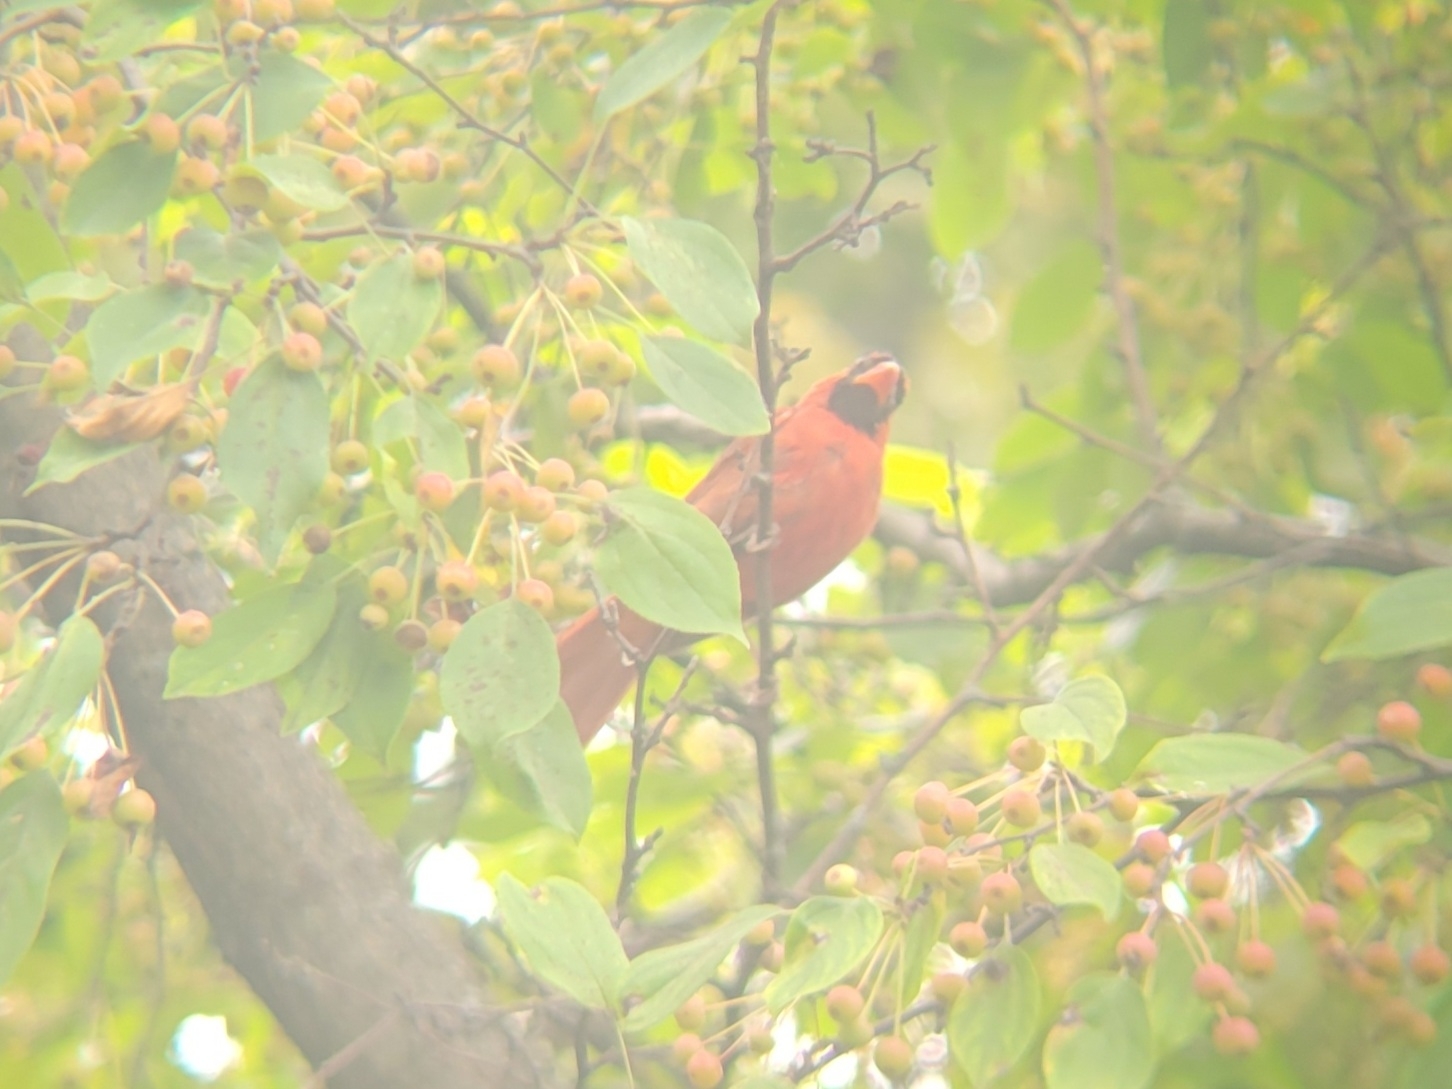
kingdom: Animalia
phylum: Chordata
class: Aves
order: Passeriformes
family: Cardinalidae
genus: Cardinalis
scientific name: Cardinalis cardinalis
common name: Northern cardinal
